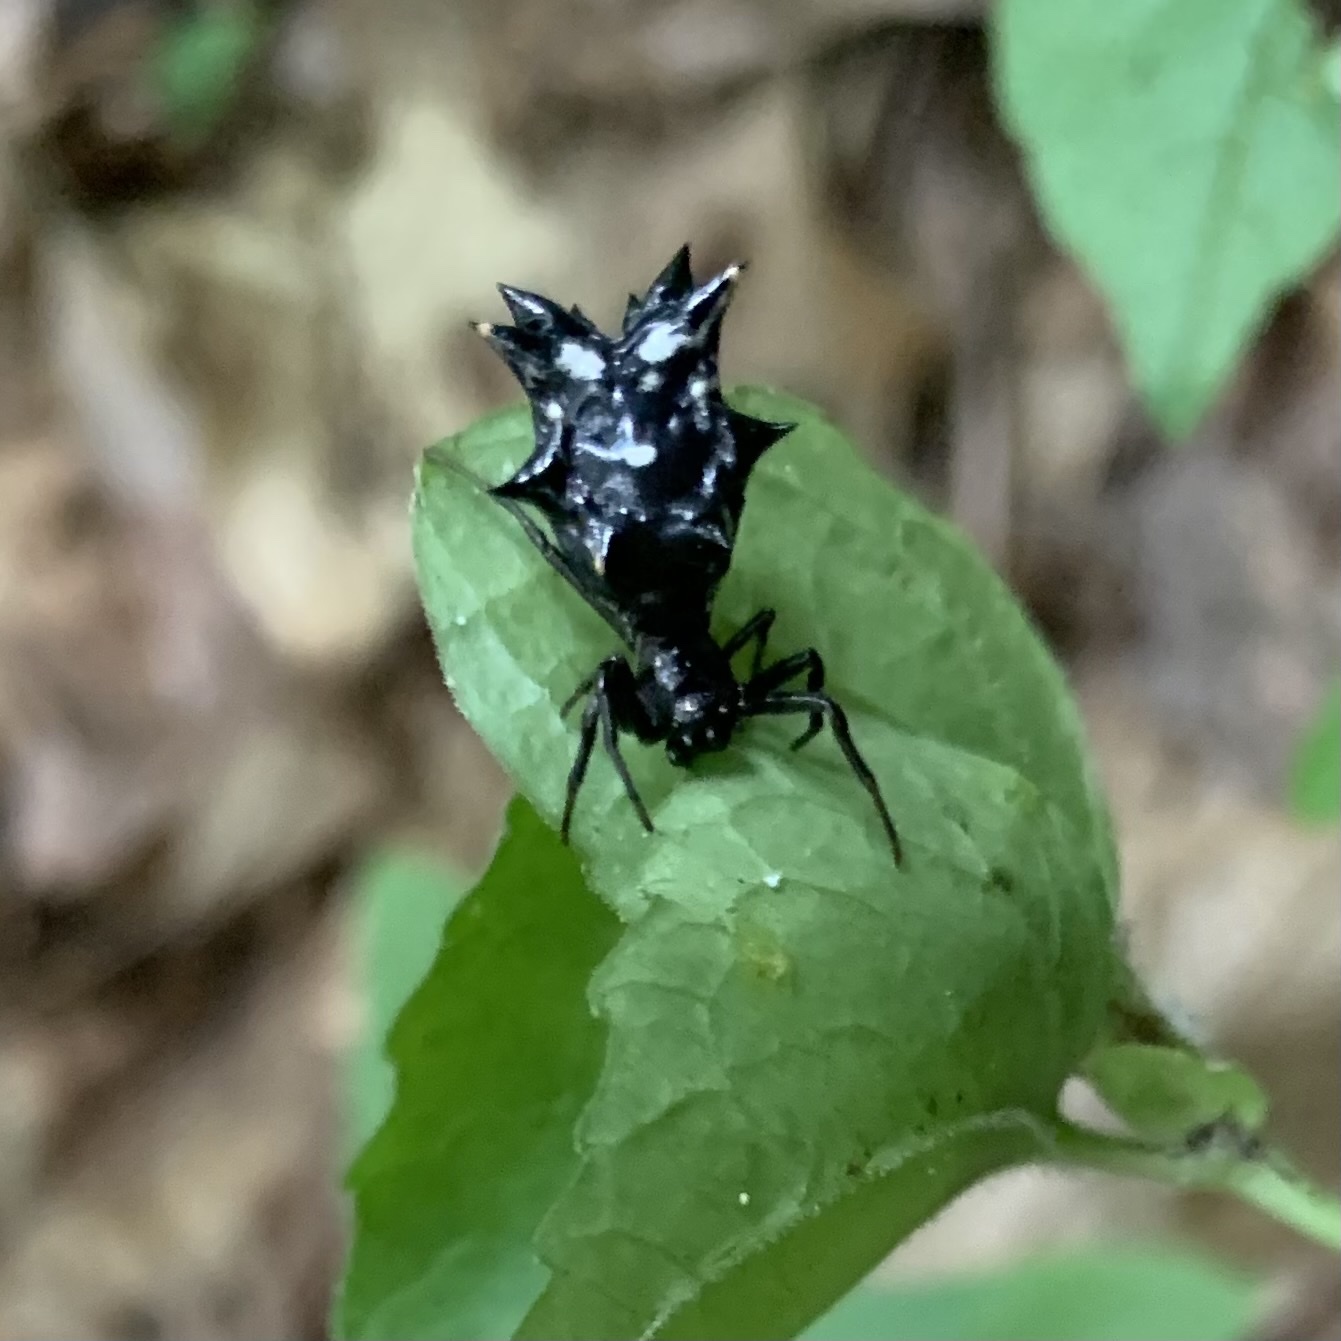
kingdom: Animalia
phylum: Arthropoda
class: Arachnida
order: Araneae
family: Araneidae
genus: Micrathena
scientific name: Micrathena gracilis
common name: Orb weavers
